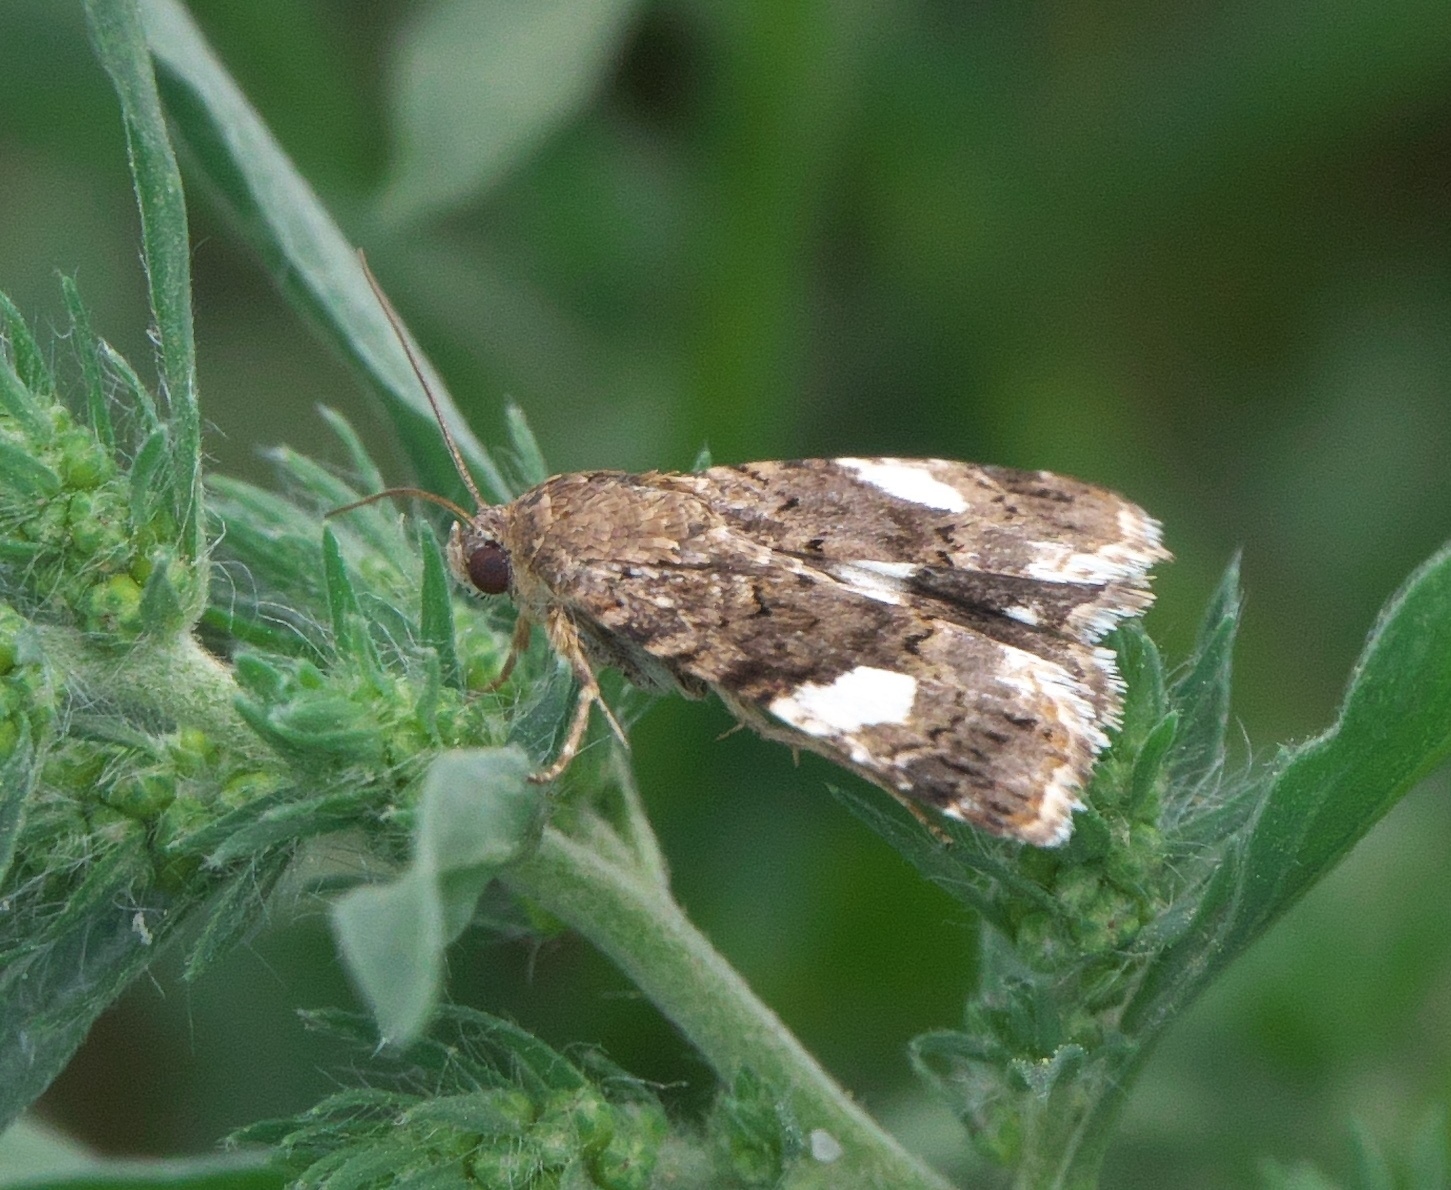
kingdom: Animalia
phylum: Arthropoda
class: Insecta
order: Lepidoptera
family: Erebidae
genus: Tyta
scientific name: Tyta luctuosa
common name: Four-spotted
